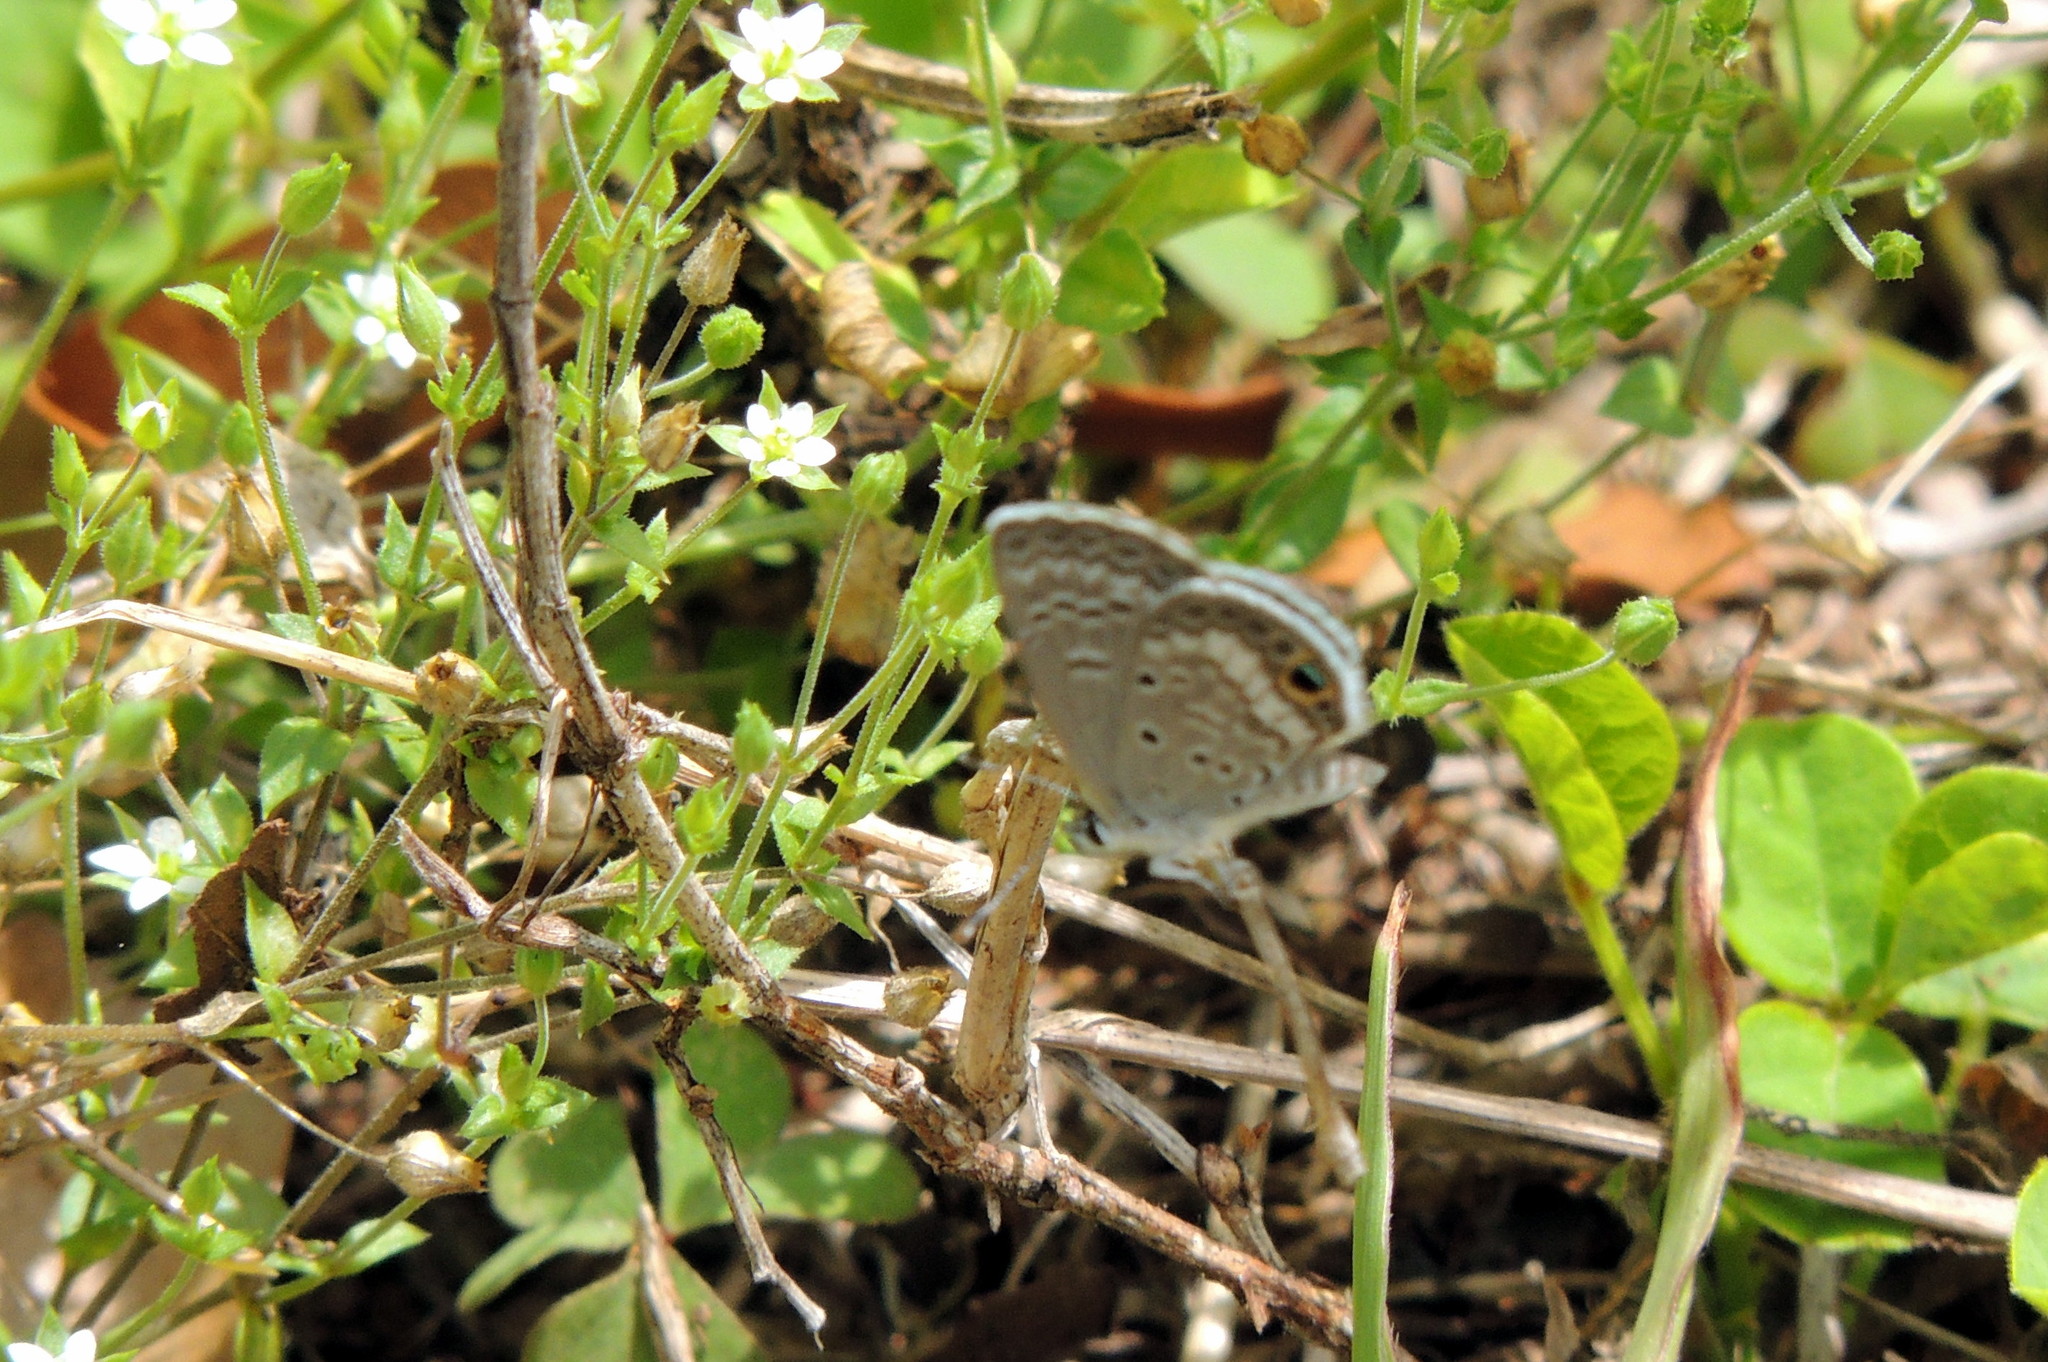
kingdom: Animalia
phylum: Arthropoda
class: Insecta
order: Lepidoptera
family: Lycaenidae
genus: Hemiargus
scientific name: Hemiargus ceraunus
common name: Ceraunus blue
